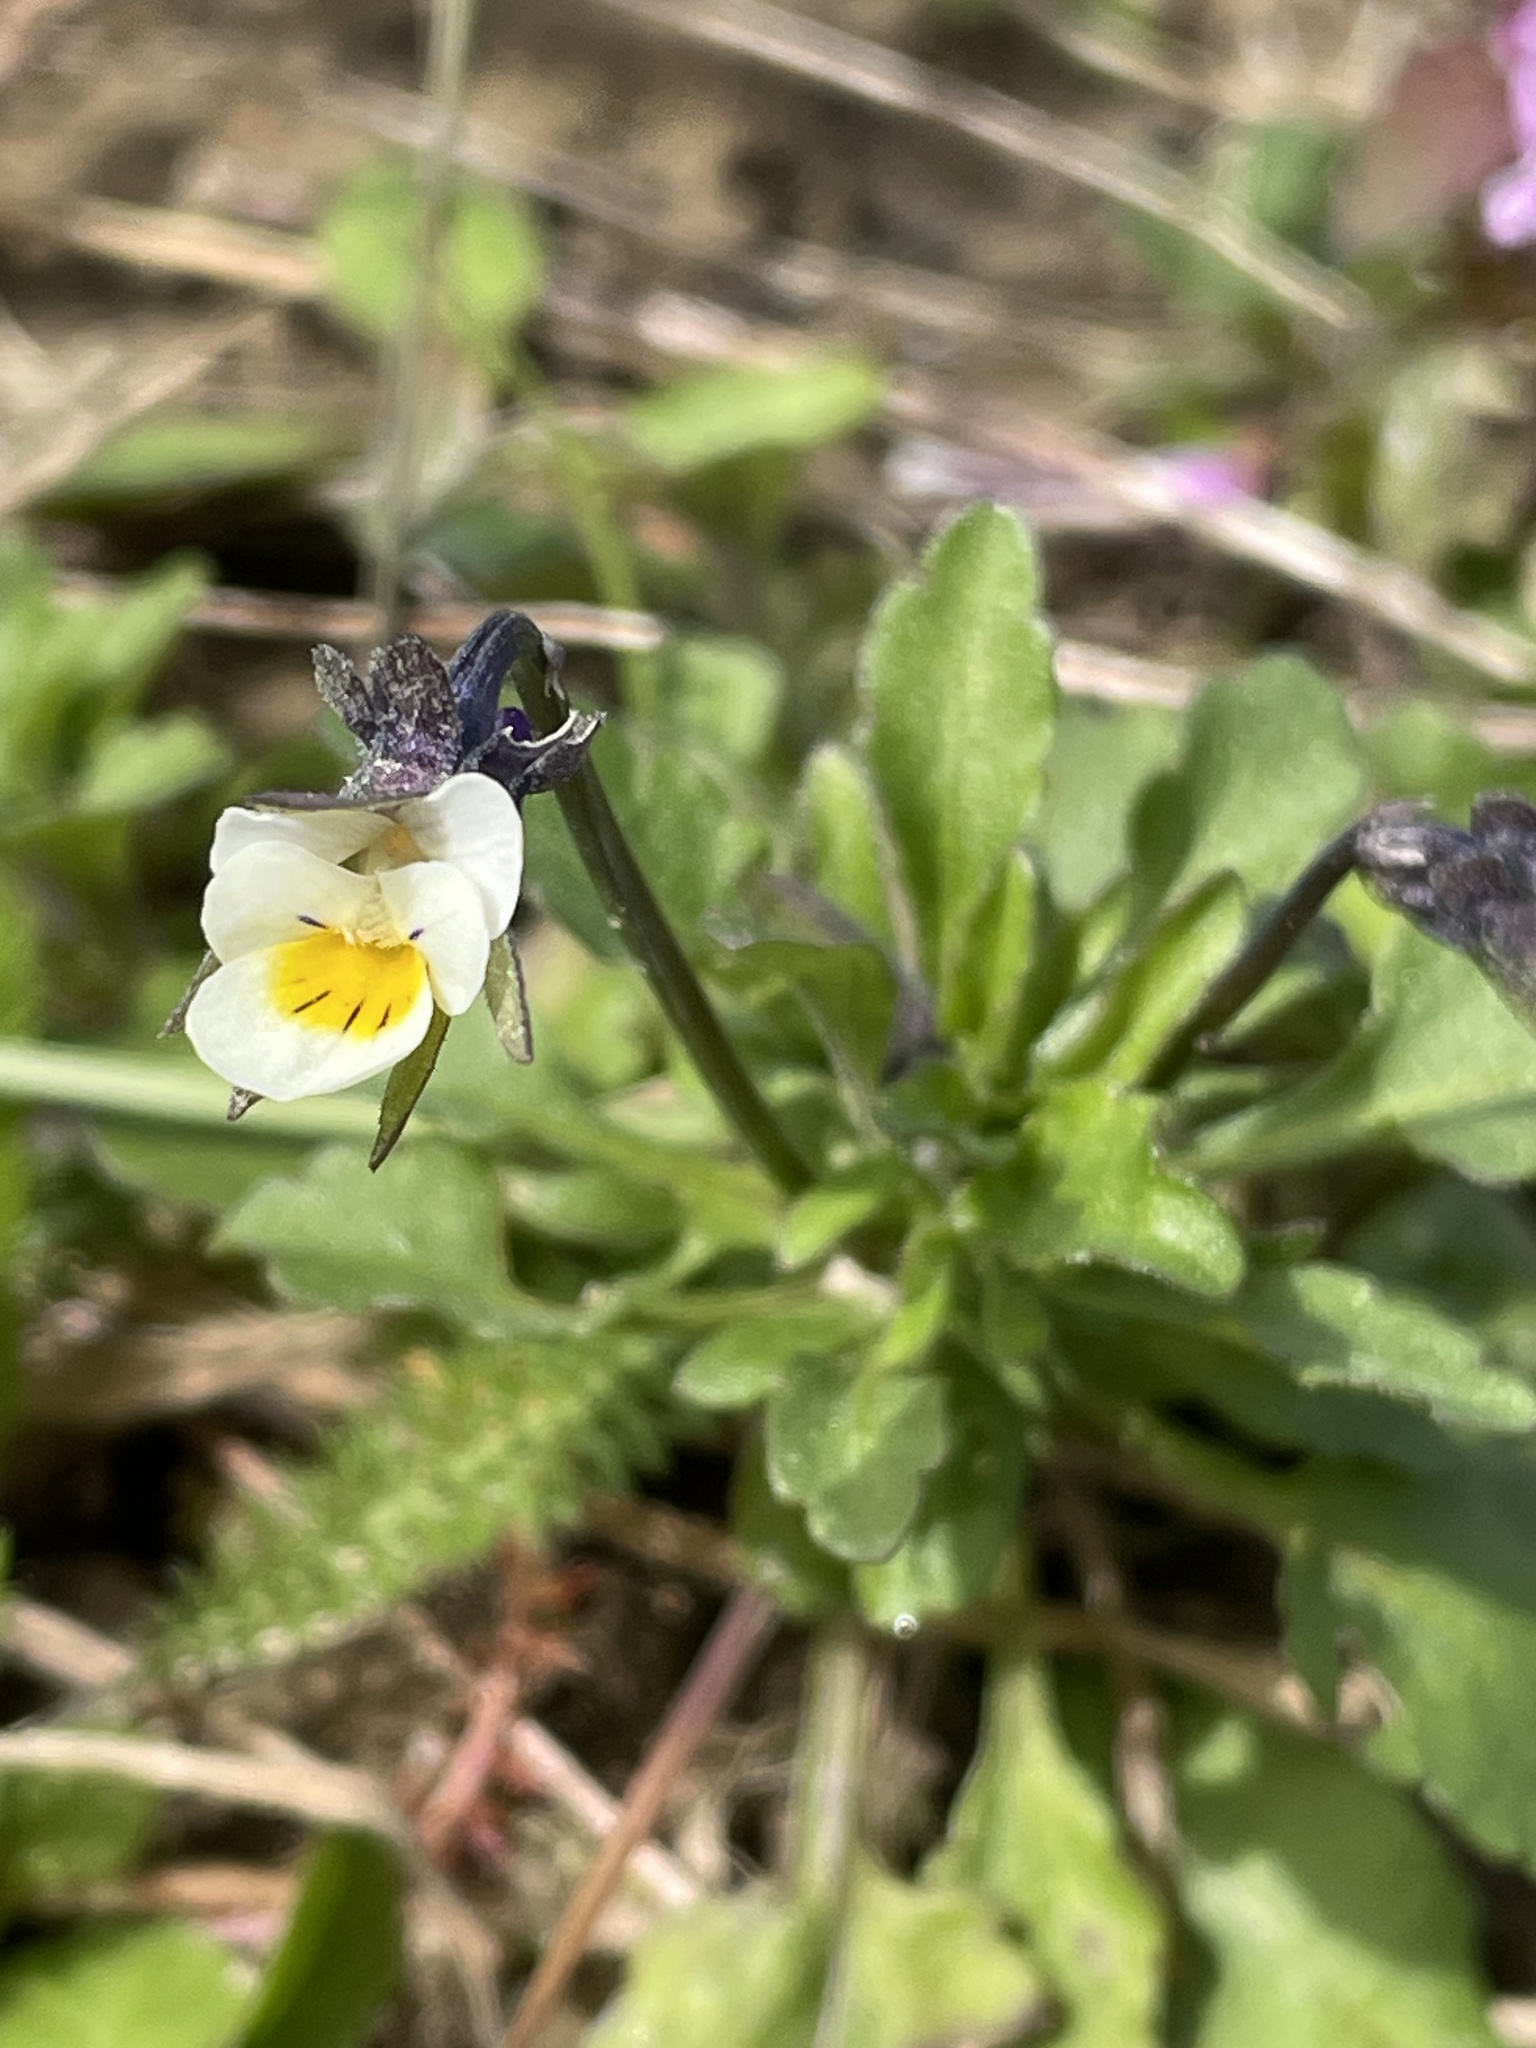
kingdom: Plantae
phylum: Tracheophyta
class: Magnoliopsida
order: Malpighiales
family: Violaceae
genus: Viola
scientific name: Viola arvensis
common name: Field pansy
